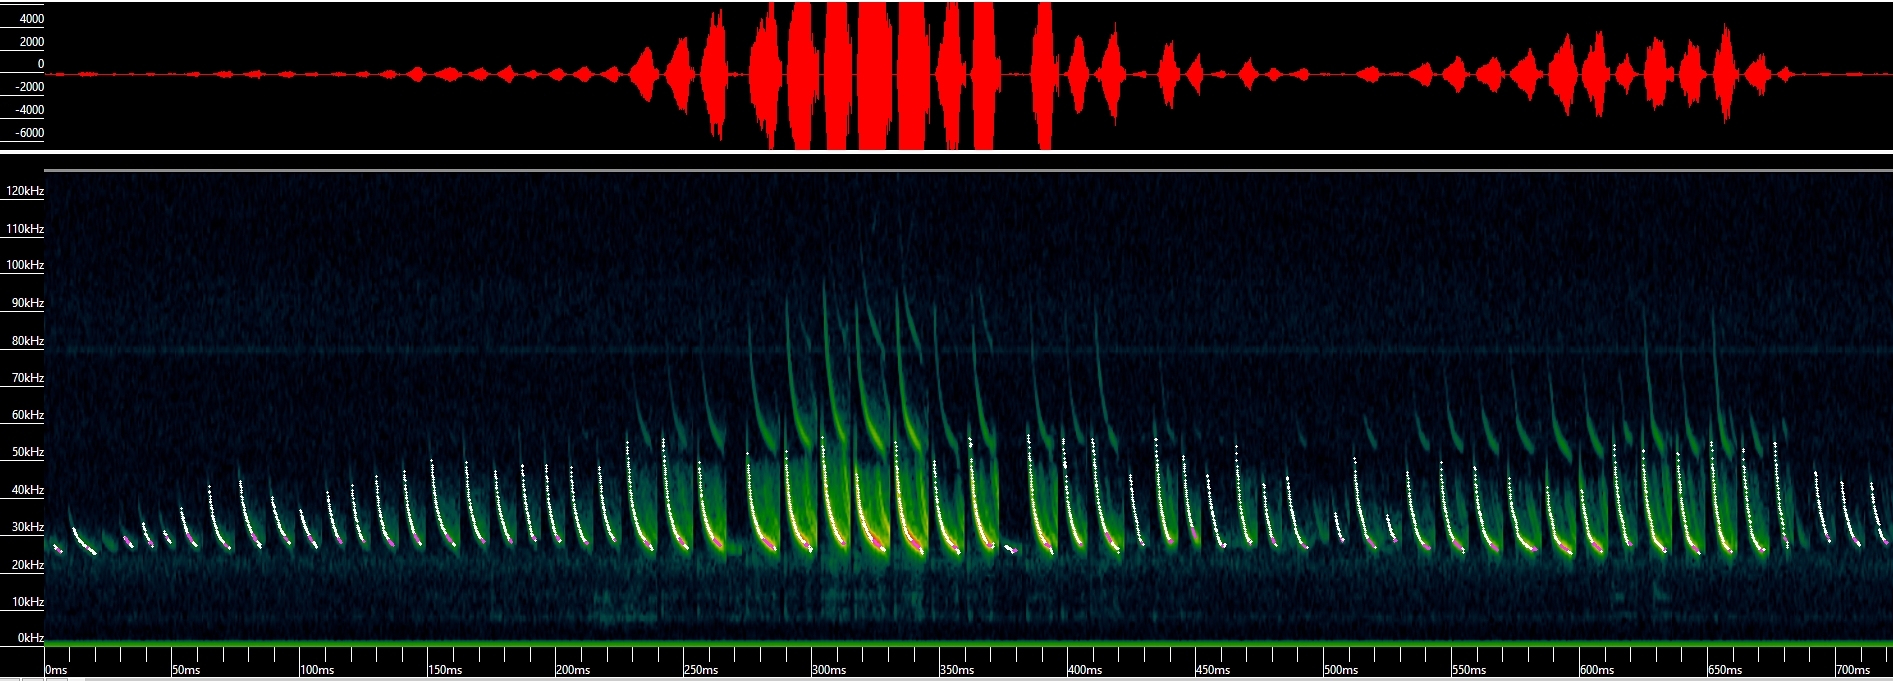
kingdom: Animalia
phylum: Chordata
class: Mammalia
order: Chiroptera
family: Vespertilionidae
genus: Eptesicus
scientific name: Eptesicus fuscus
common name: Big brown bat
